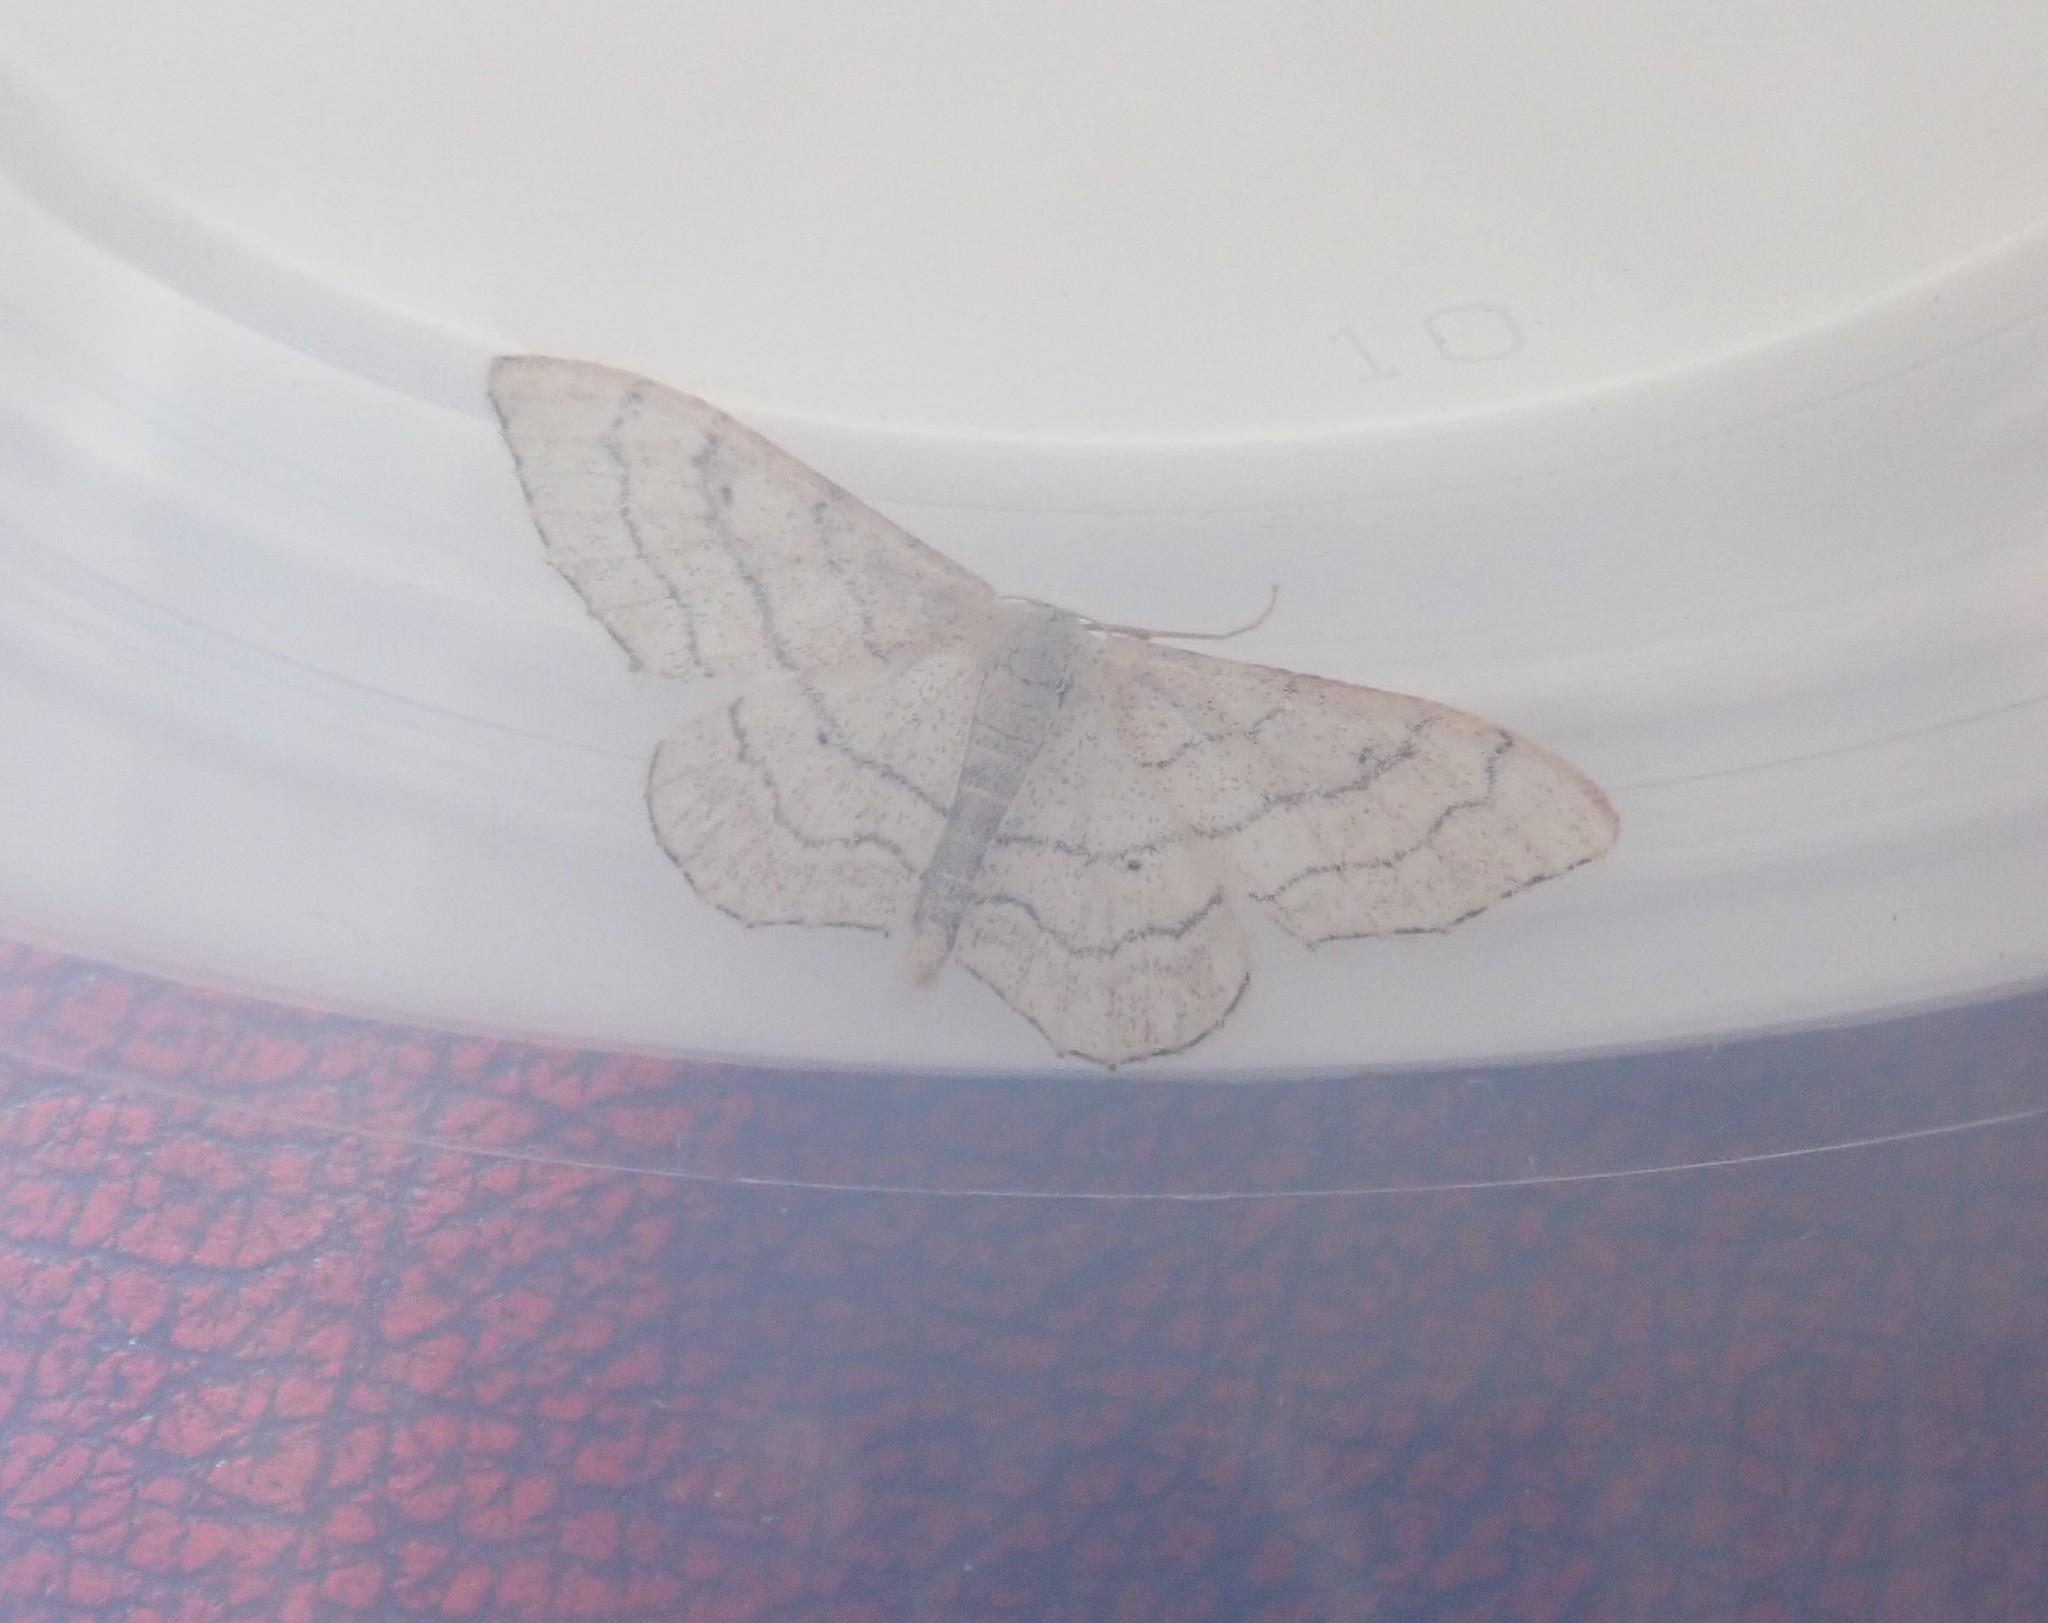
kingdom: Animalia
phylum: Arthropoda
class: Insecta
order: Lepidoptera
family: Geometridae
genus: Idaea
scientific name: Idaea aversata
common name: Riband wave
